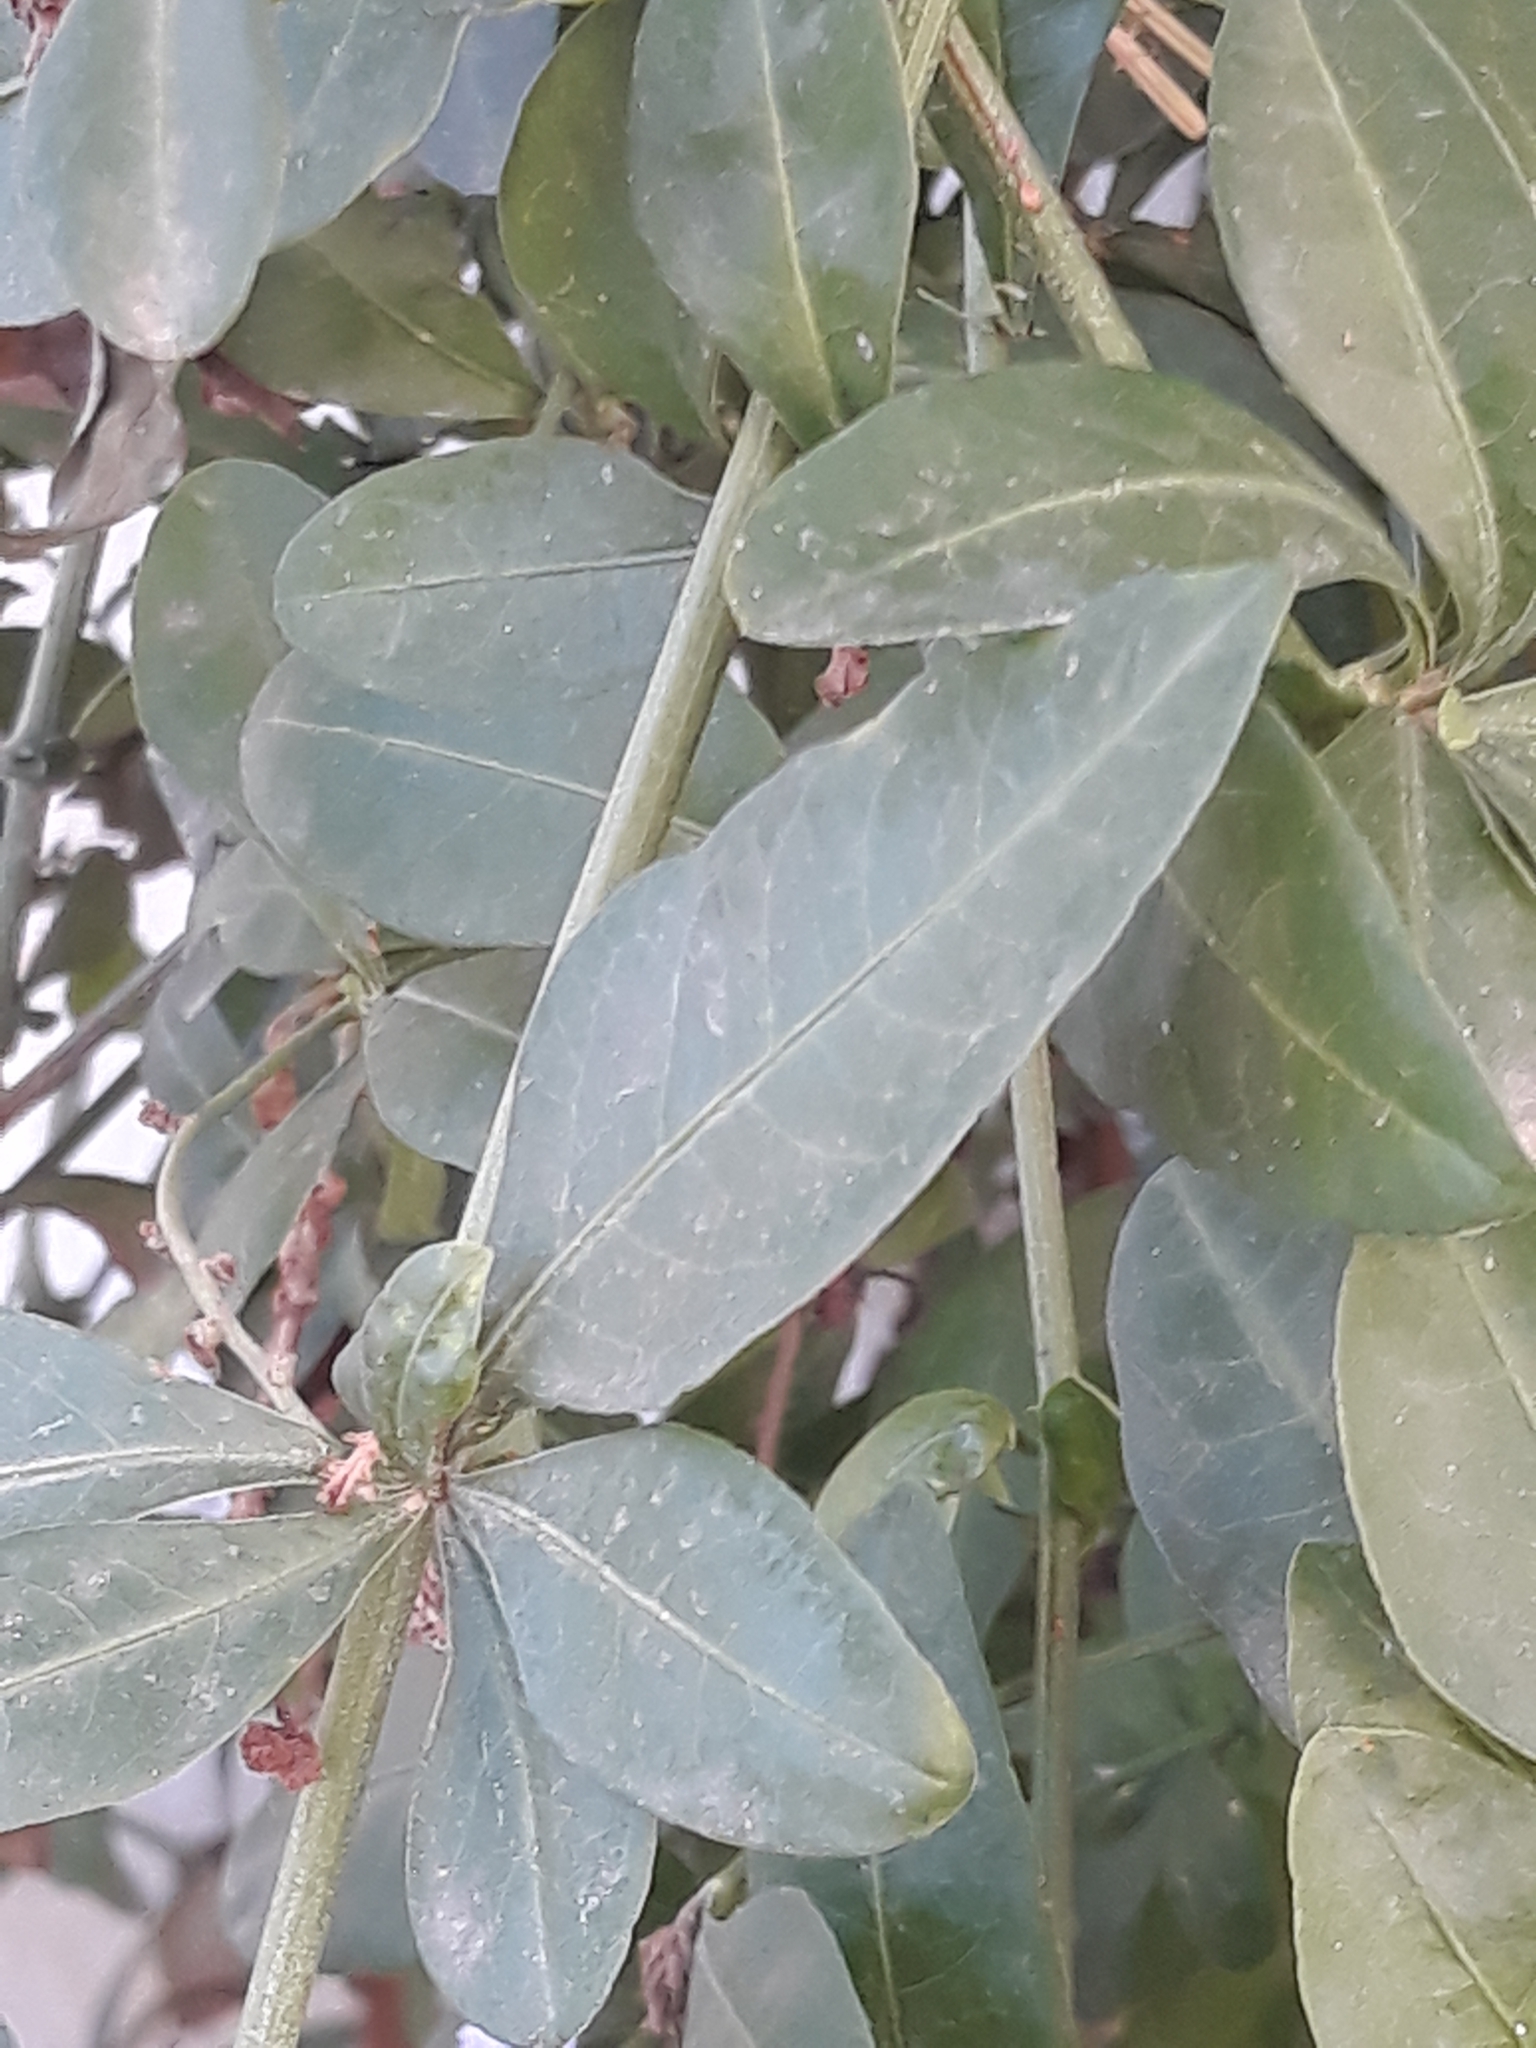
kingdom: Plantae
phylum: Tracheophyta
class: Magnoliopsida
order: Caryophyllales
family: Plumbaginaceae
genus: Plumbago
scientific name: Plumbago auriculata
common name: Cape leadwort
